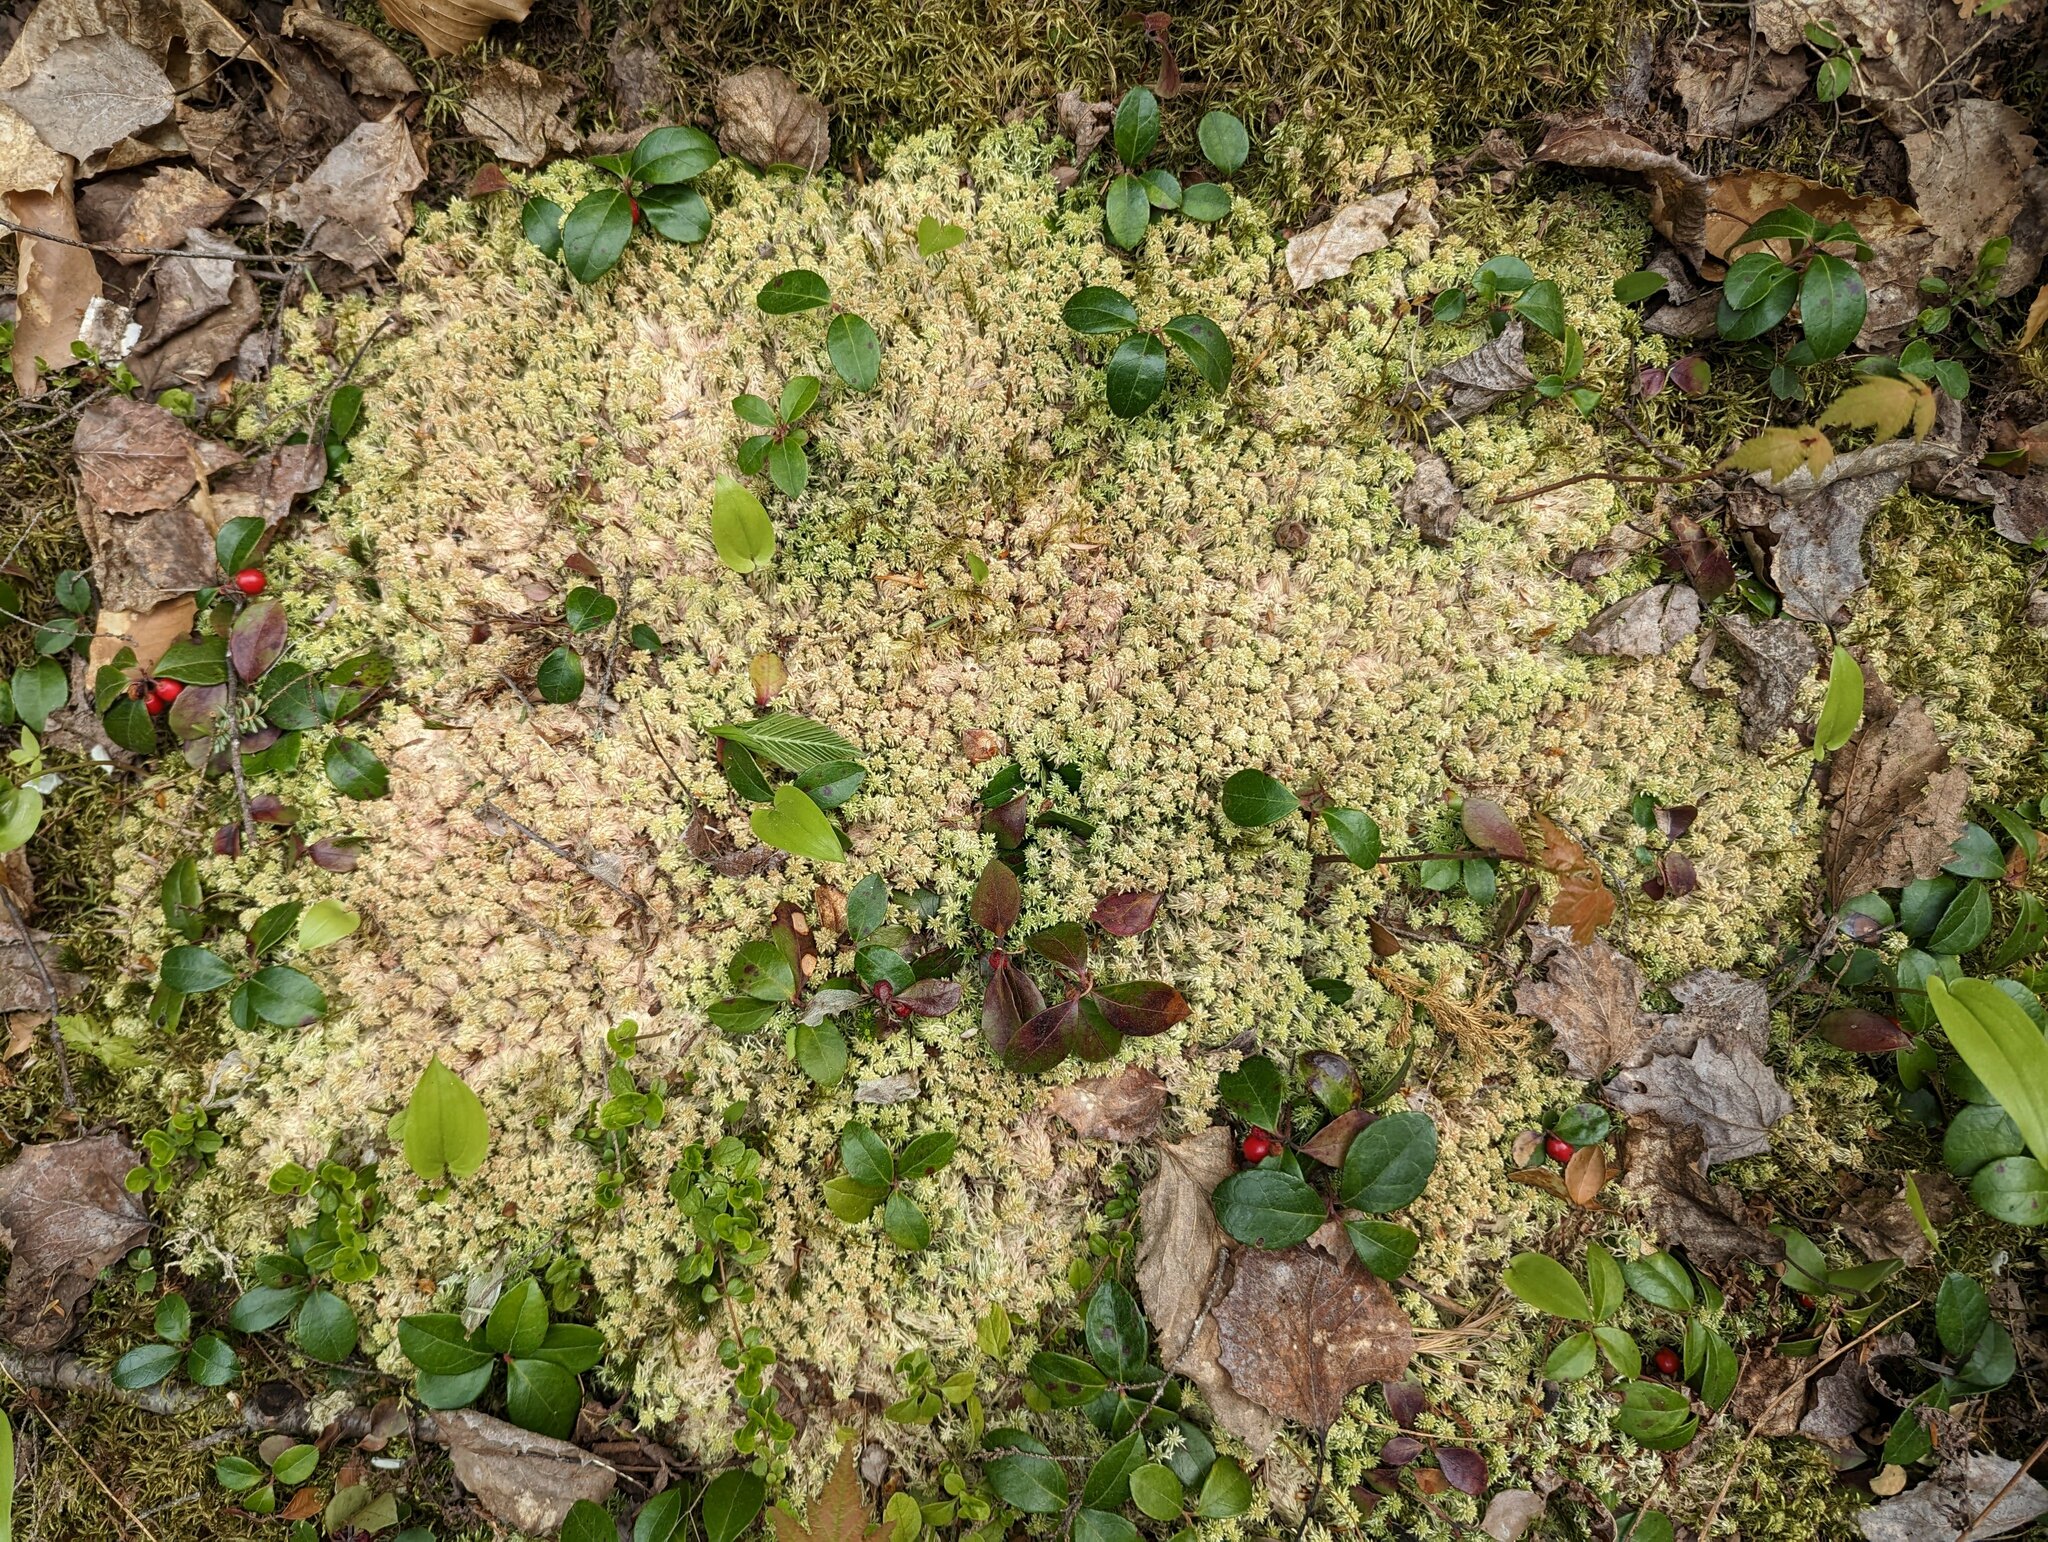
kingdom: Plantae
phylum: Tracheophyta
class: Magnoliopsida
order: Ericales
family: Ericaceae
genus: Gaultheria
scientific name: Gaultheria procumbens
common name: Checkerberry
